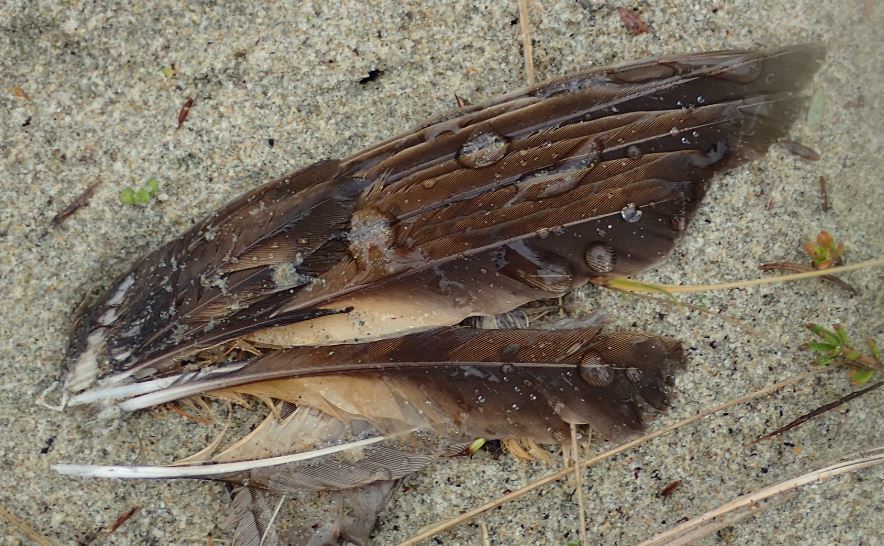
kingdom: Animalia
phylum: Chordata
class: Aves
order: Passeriformes
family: Turdidae
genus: Turdus
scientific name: Turdus philomelos
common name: Song thrush
